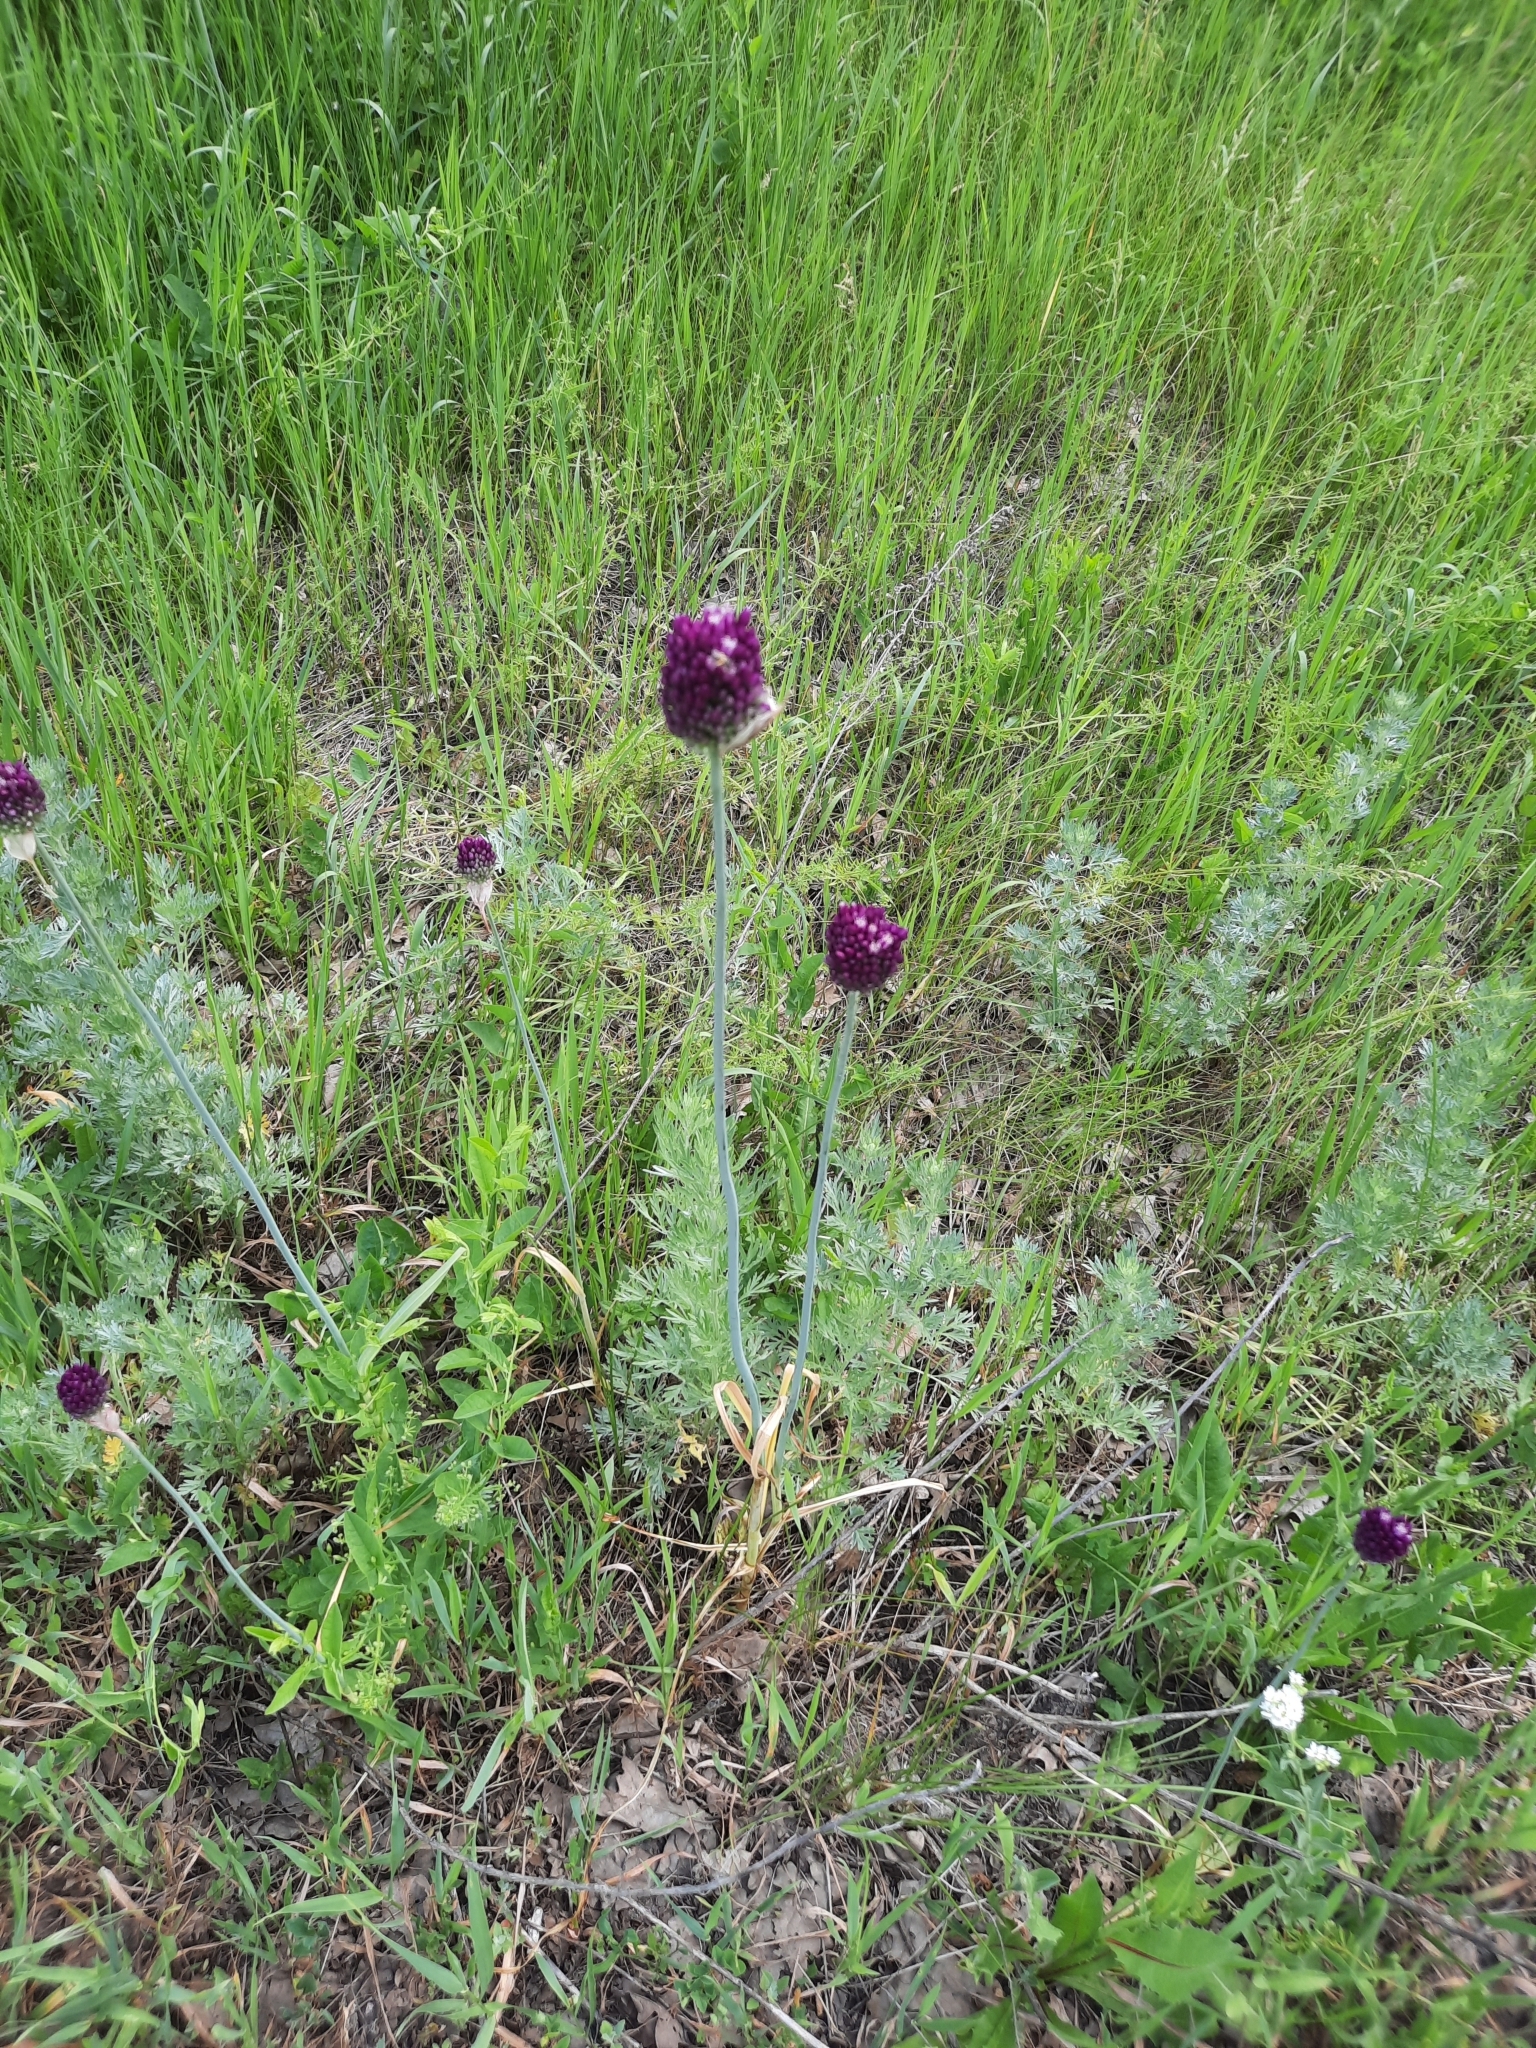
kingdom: Plantae
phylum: Tracheophyta
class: Liliopsida
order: Asparagales
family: Amaryllidaceae
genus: Allium
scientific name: Allium rotundum
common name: Sand leek
